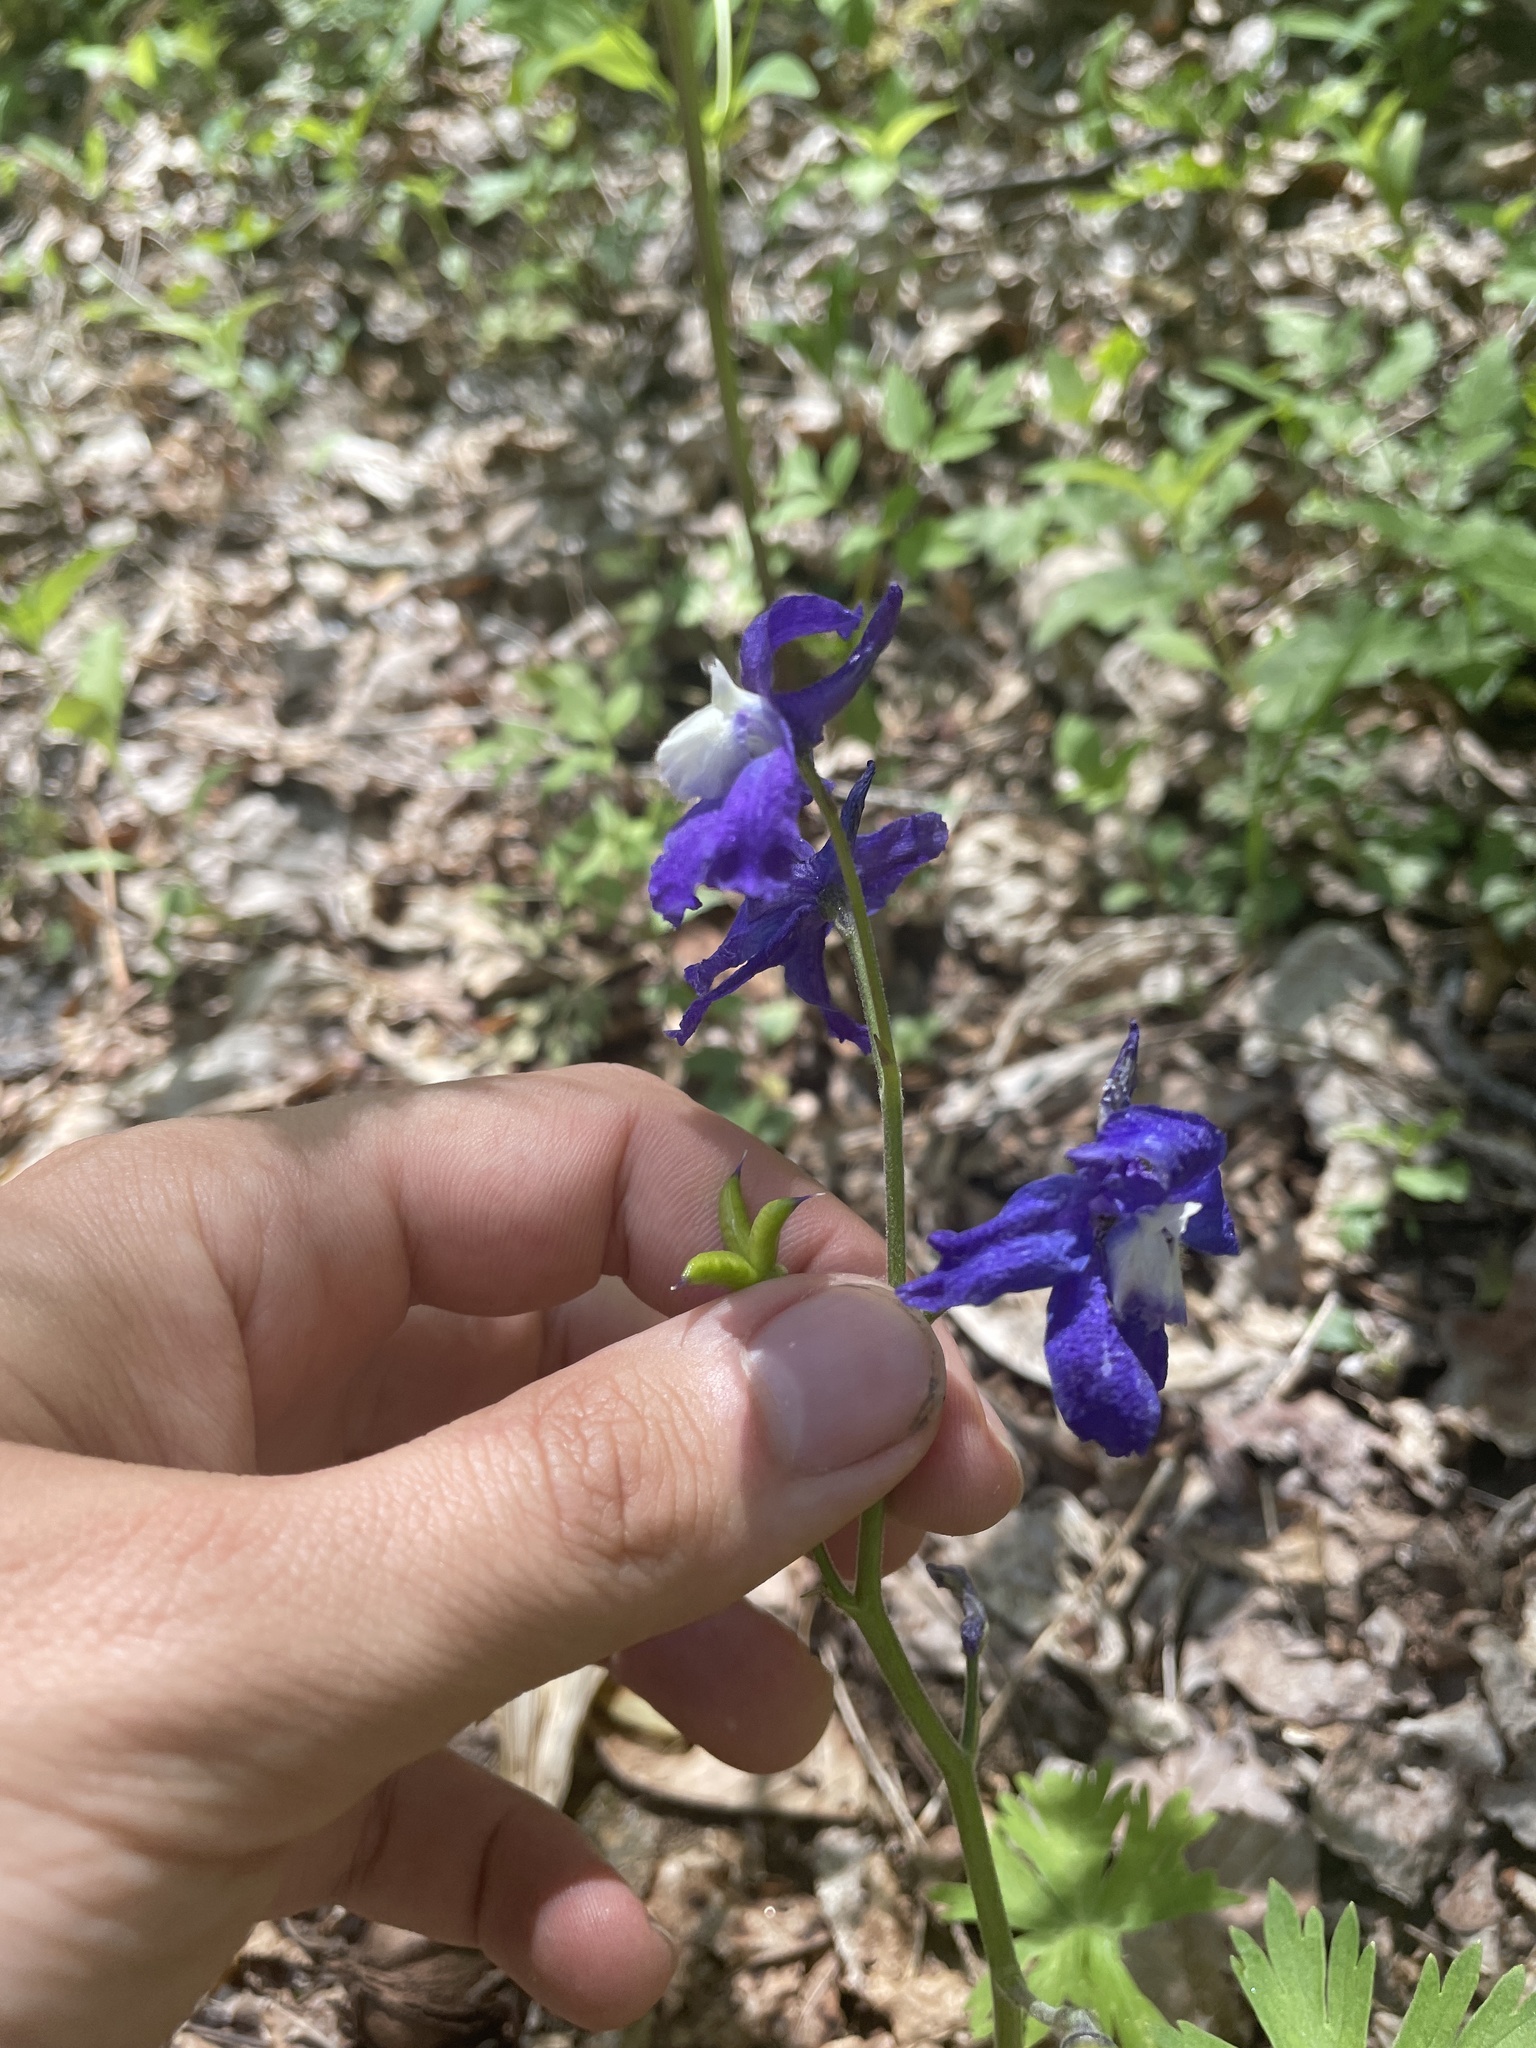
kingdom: Plantae
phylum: Tracheophyta
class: Magnoliopsida
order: Ranunculales
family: Ranunculaceae
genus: Delphinium
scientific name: Delphinium tricorne
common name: Dwarf larkspur
